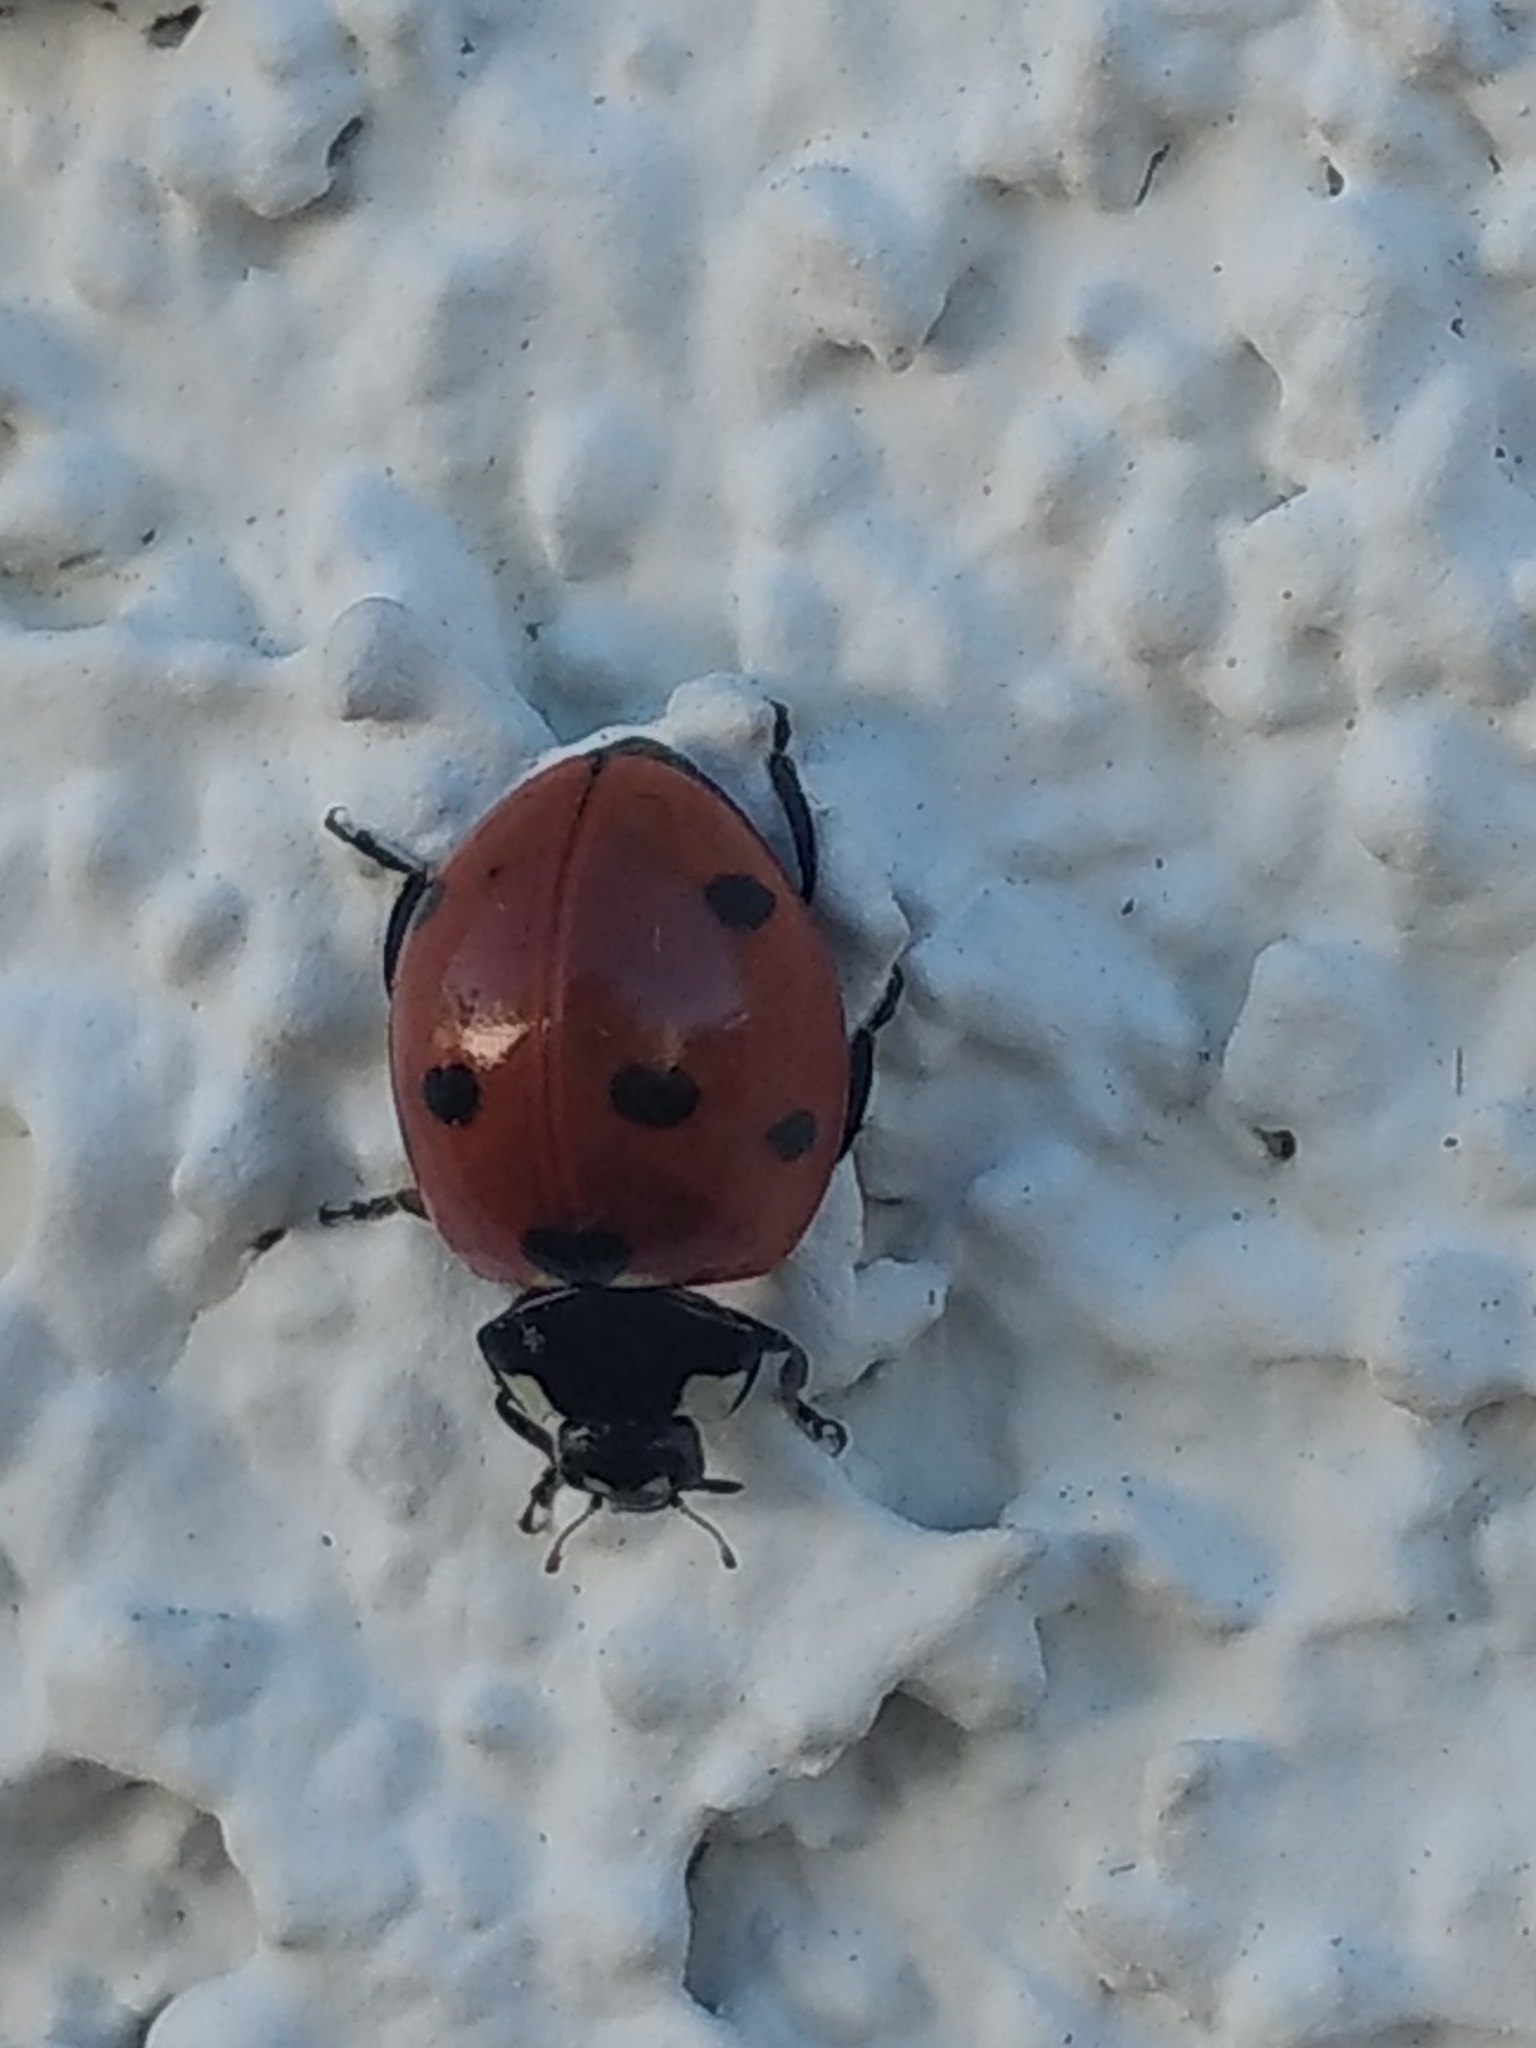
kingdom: Animalia
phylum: Arthropoda
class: Insecta
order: Coleoptera
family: Coccinellidae
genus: Coccinella
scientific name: Coccinella septempunctata
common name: Sevenspotted lady beetle
